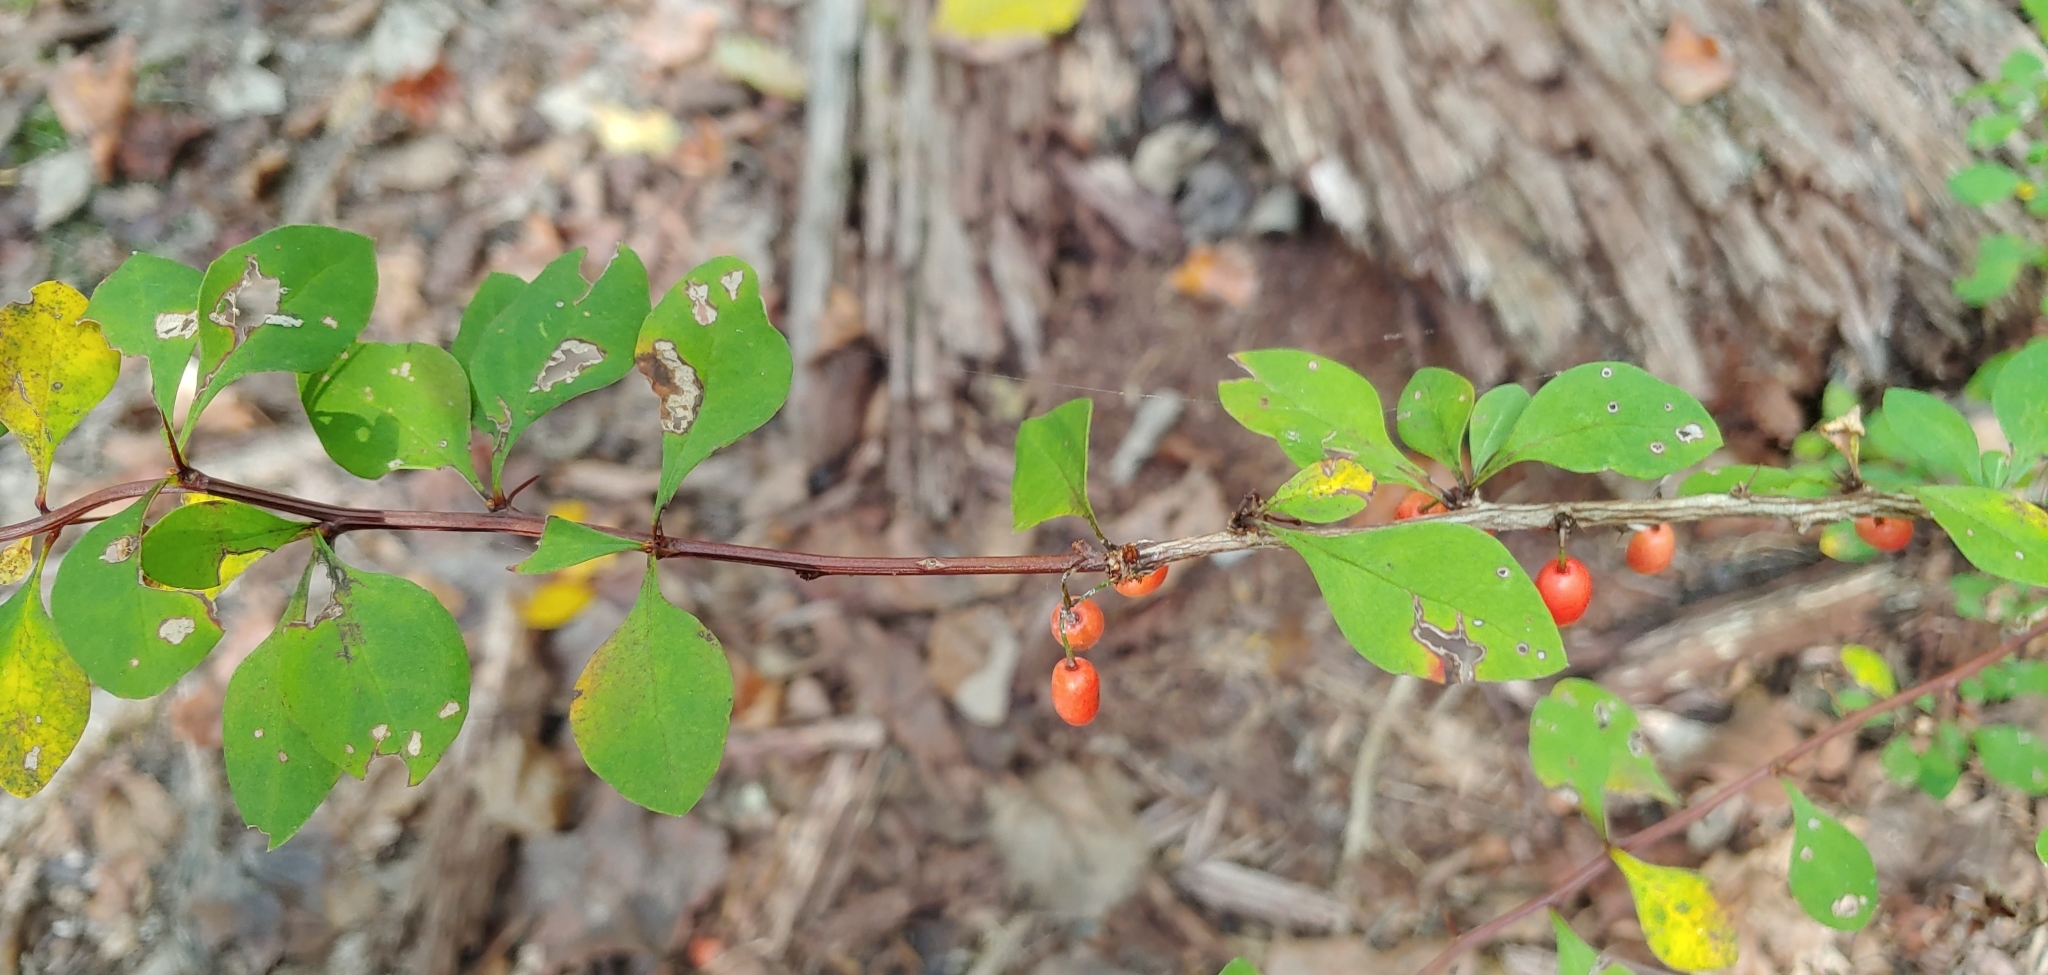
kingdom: Plantae
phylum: Tracheophyta
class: Magnoliopsida
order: Ranunculales
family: Berberidaceae
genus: Berberis
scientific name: Berberis thunbergii
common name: Japanese barberry
